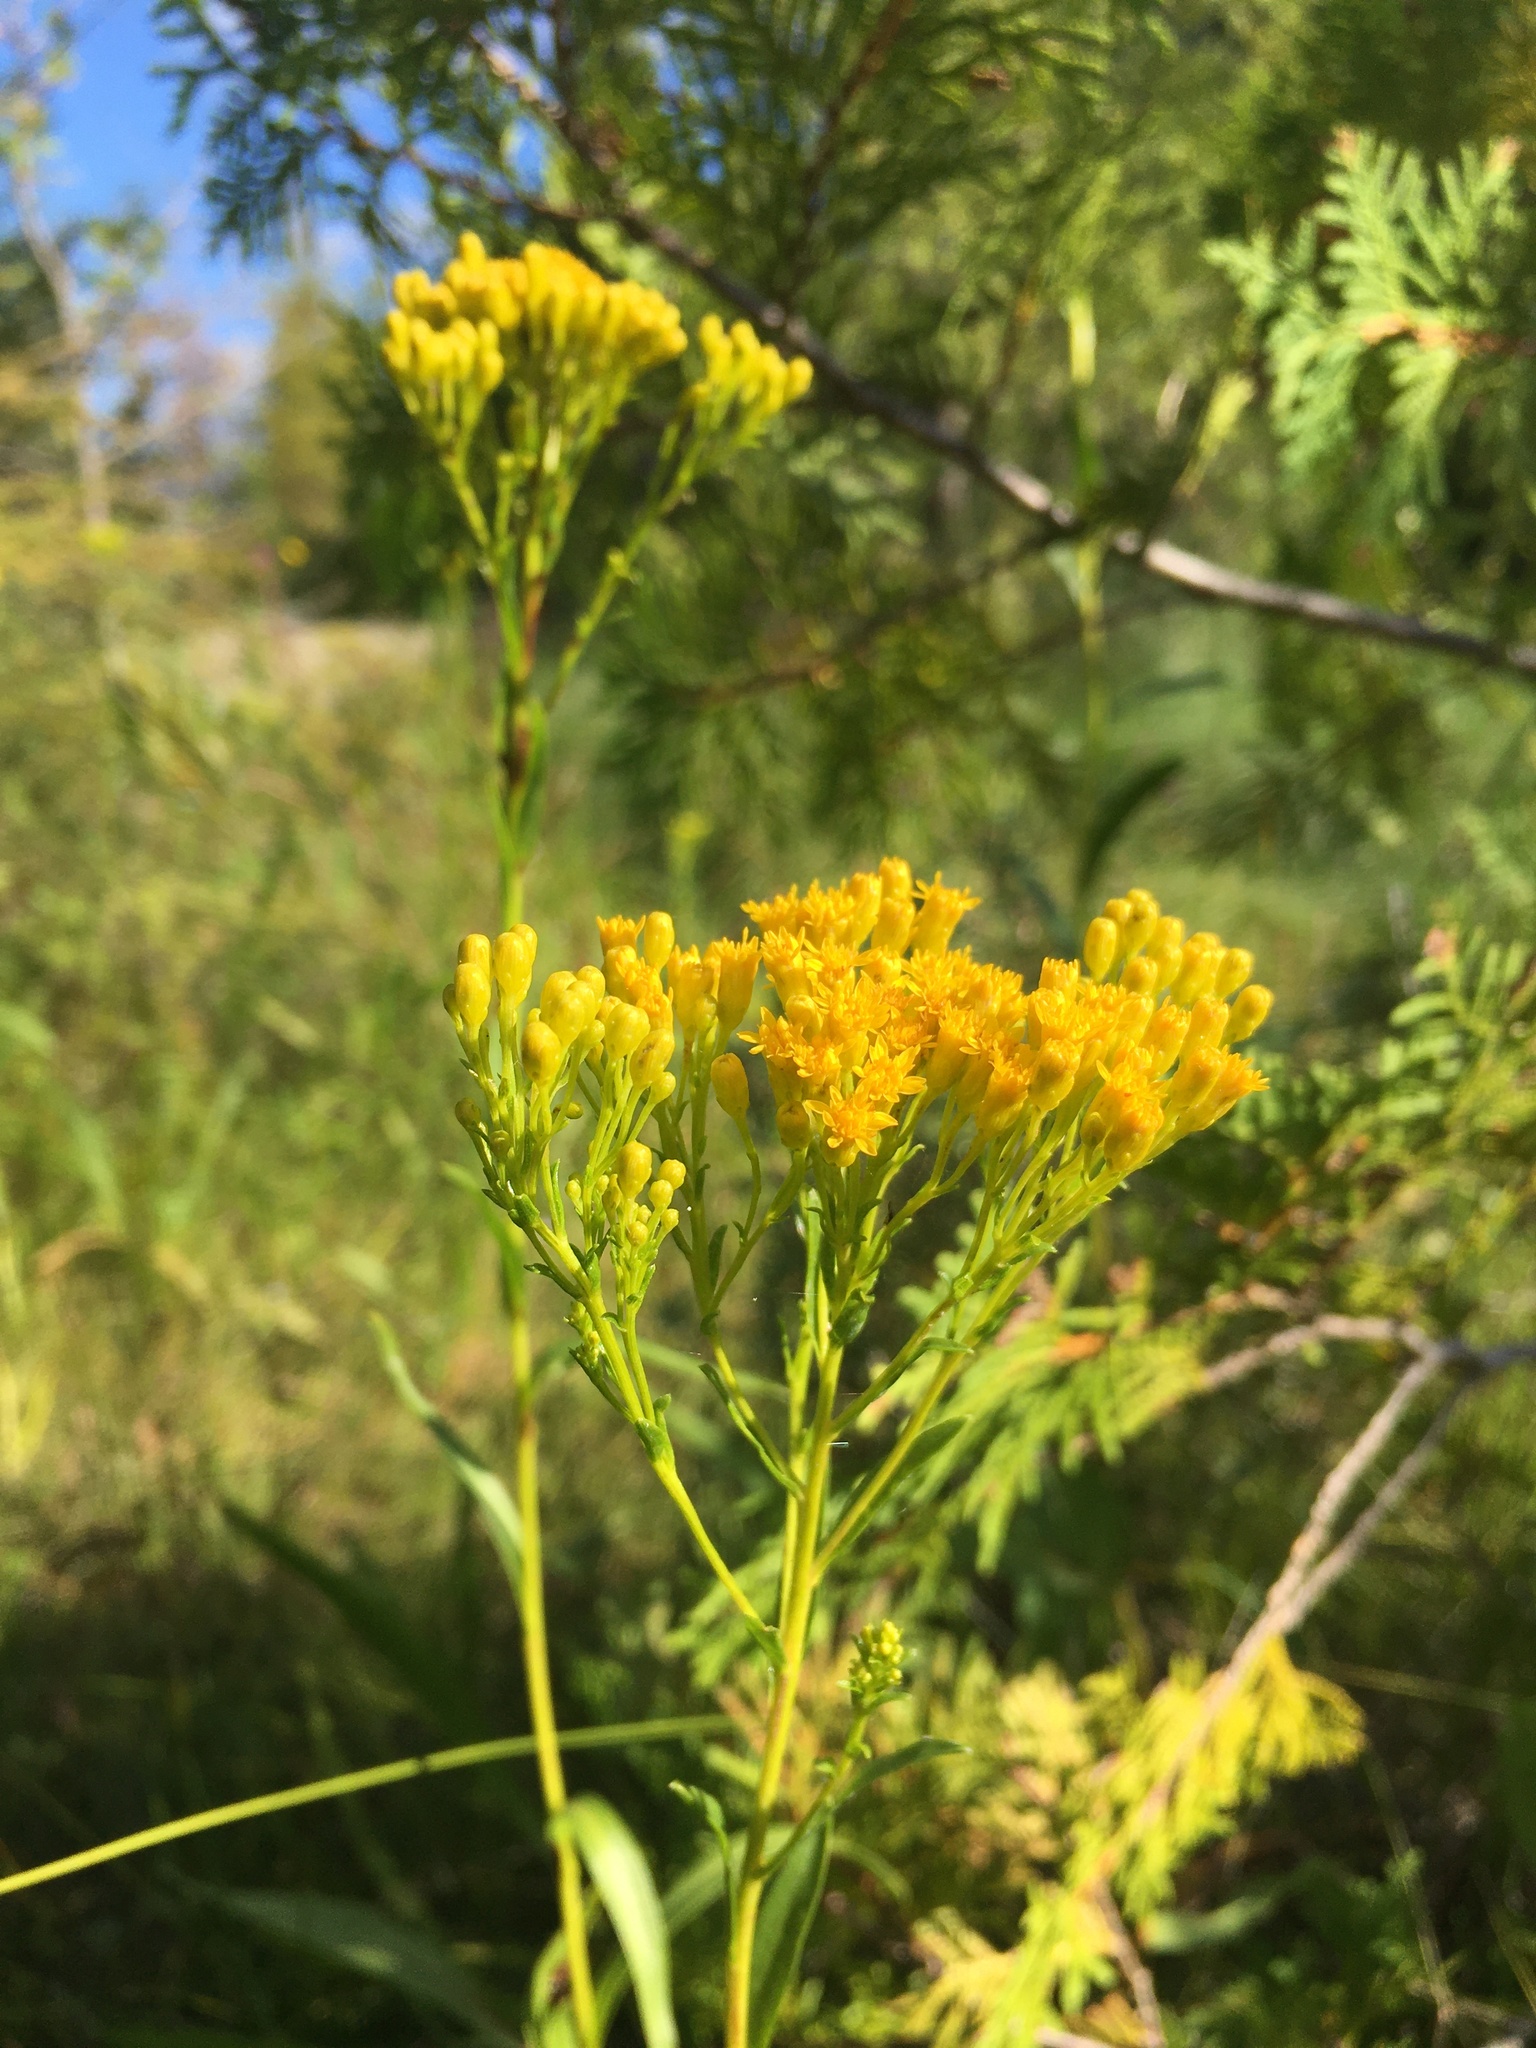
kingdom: Plantae
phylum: Tracheophyta
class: Magnoliopsida
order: Asterales
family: Asteraceae
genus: Solidago
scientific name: Solidago ohioensis
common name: Ohio goldenrod
